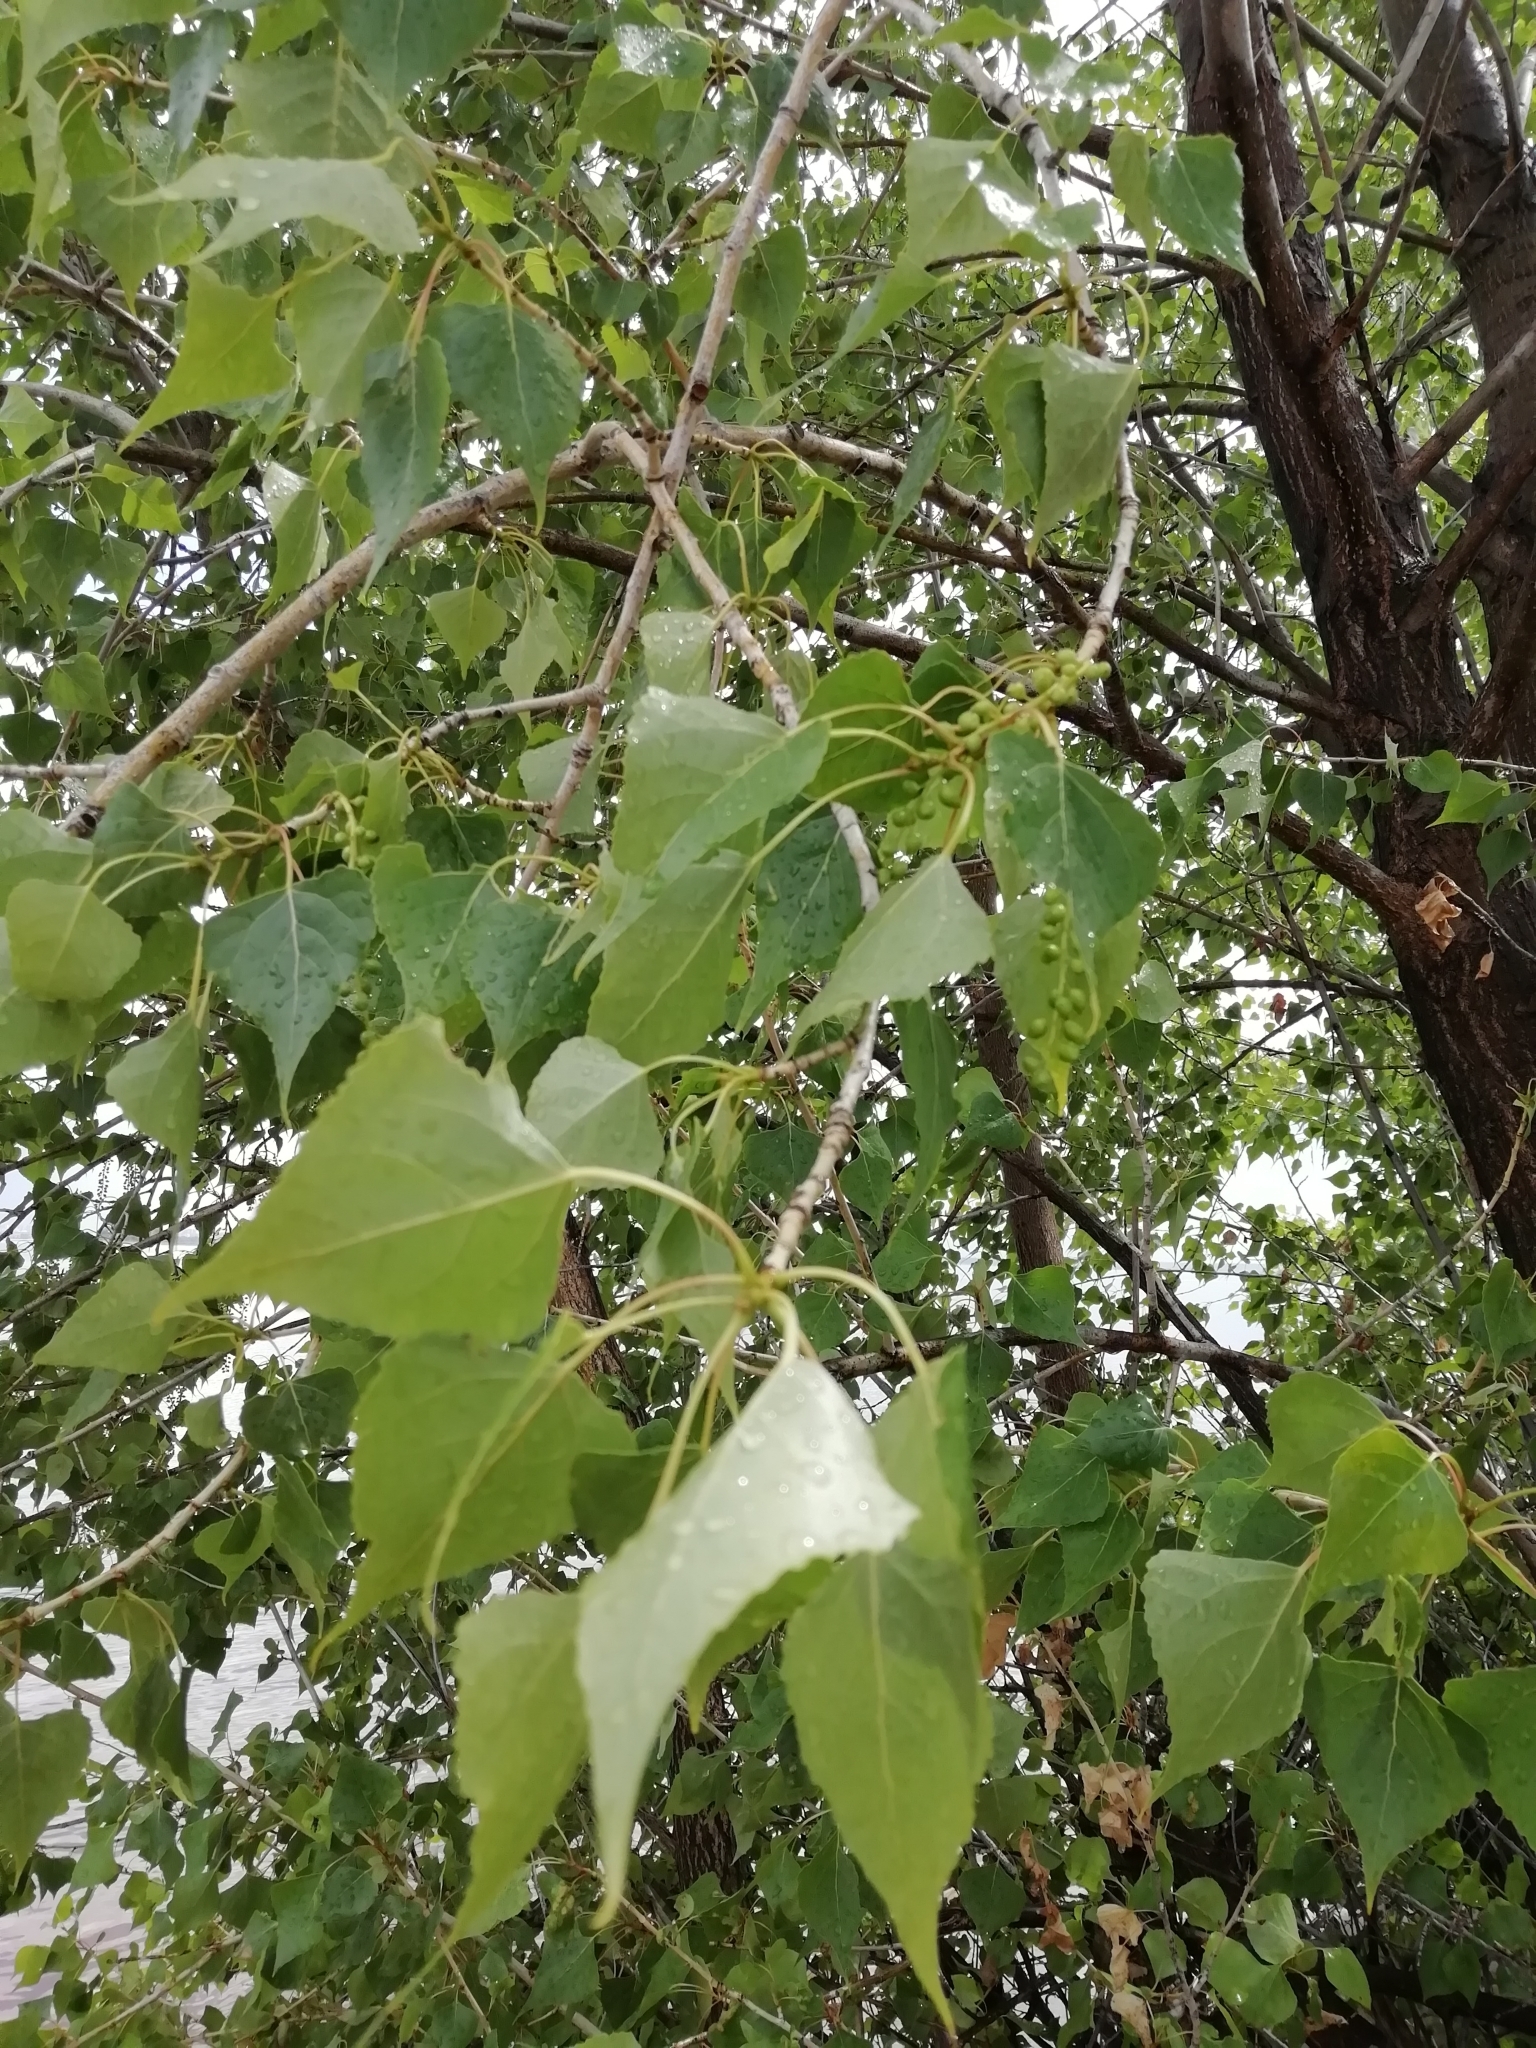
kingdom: Plantae
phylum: Tracheophyta
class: Magnoliopsida
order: Malpighiales
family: Salicaceae
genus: Populus
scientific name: Populus nigra
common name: Black poplar
